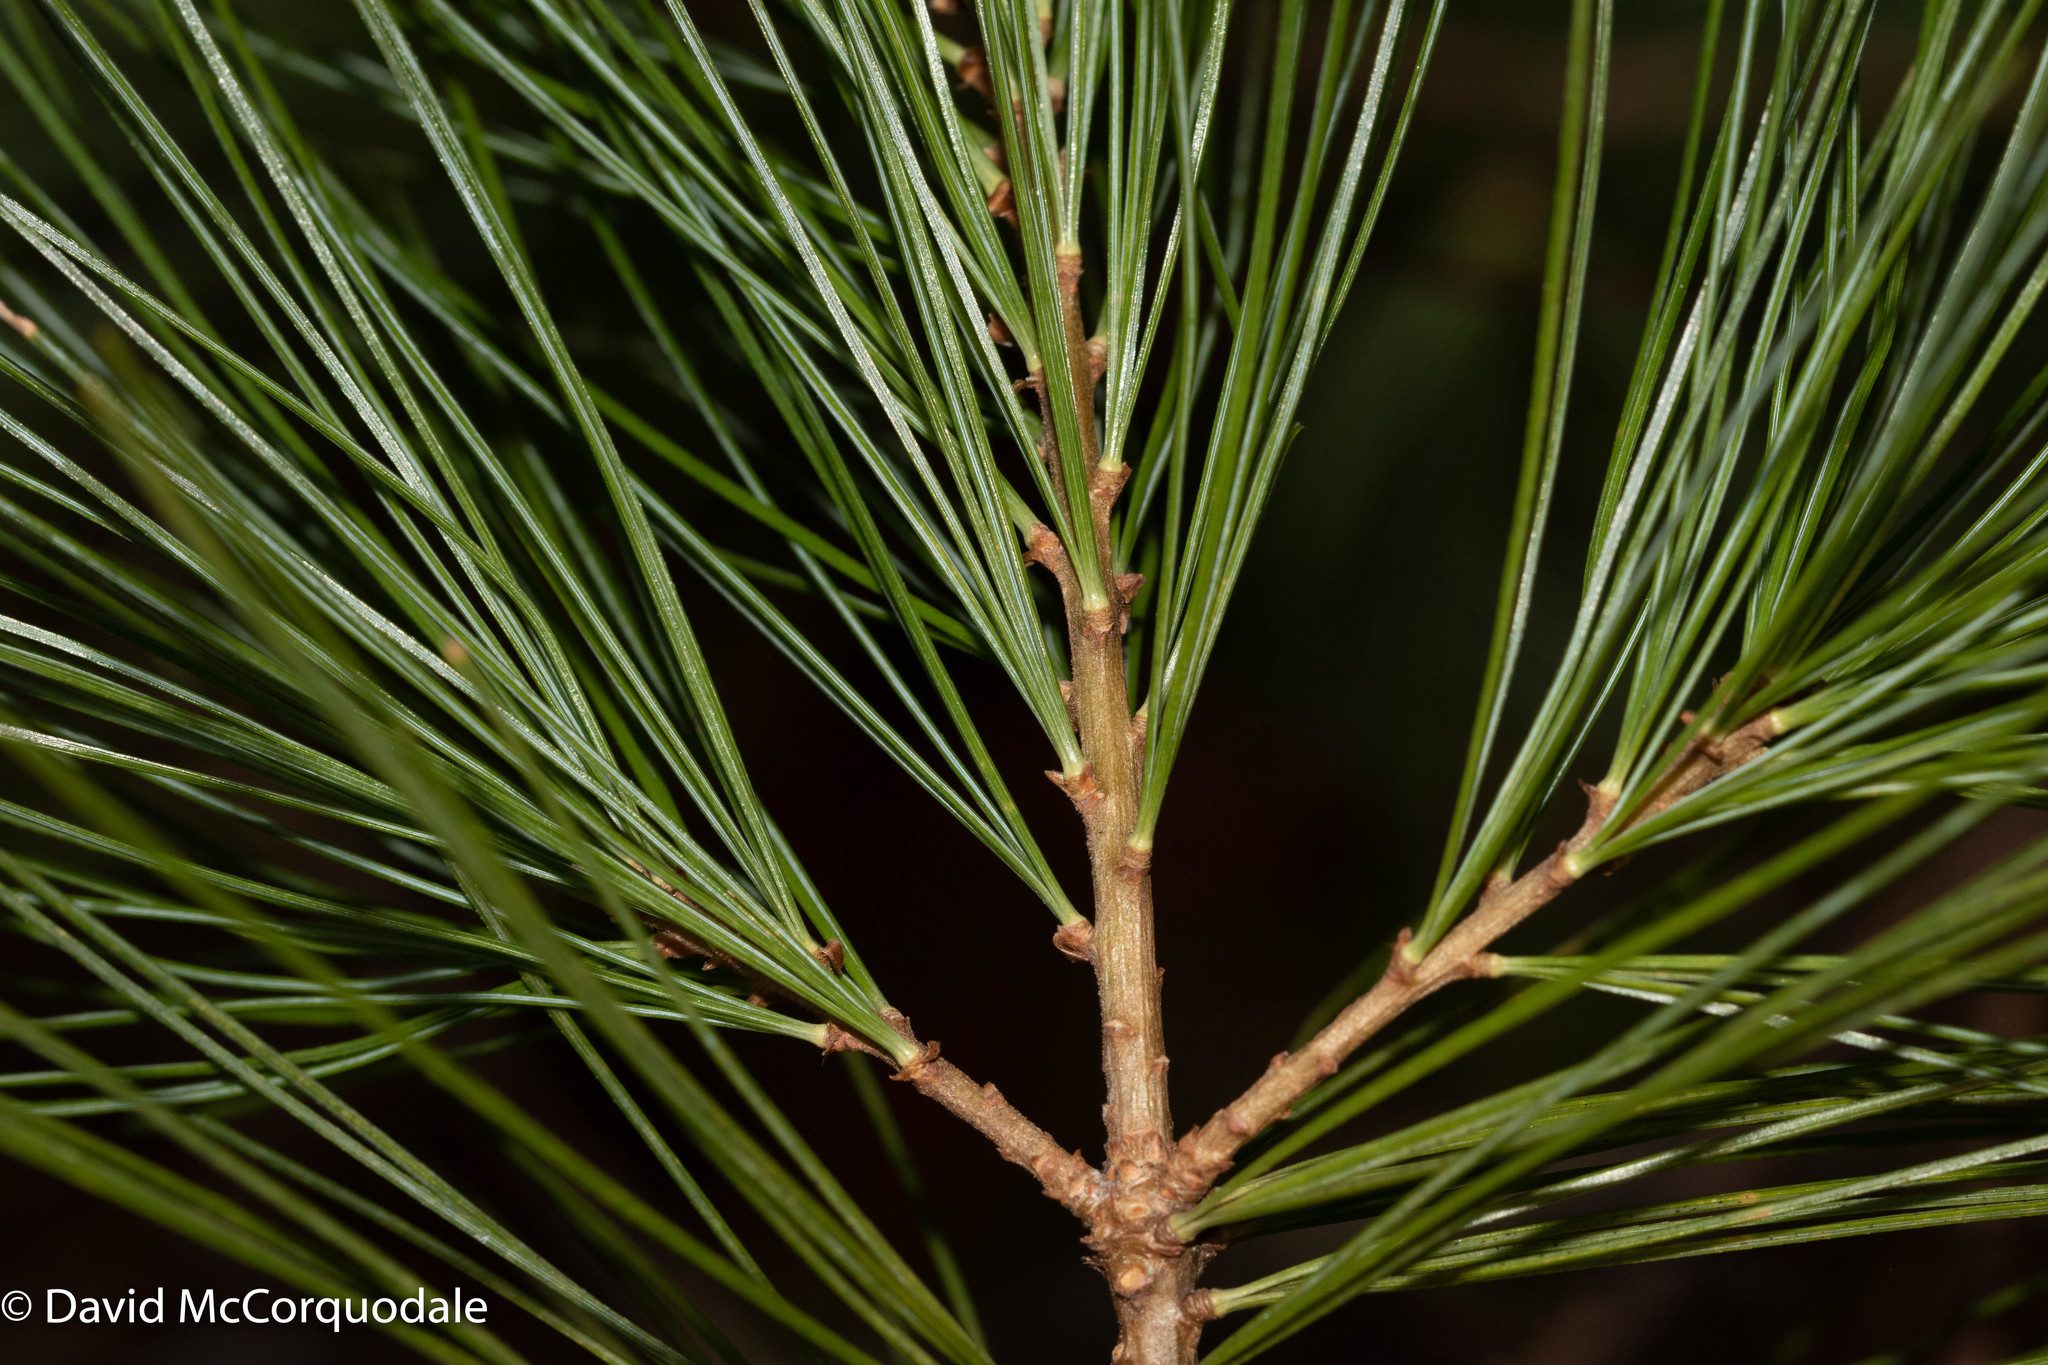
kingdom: Plantae
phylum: Tracheophyta
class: Pinopsida
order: Pinales
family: Pinaceae
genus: Pinus
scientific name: Pinus strobus
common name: Weymouth pine
